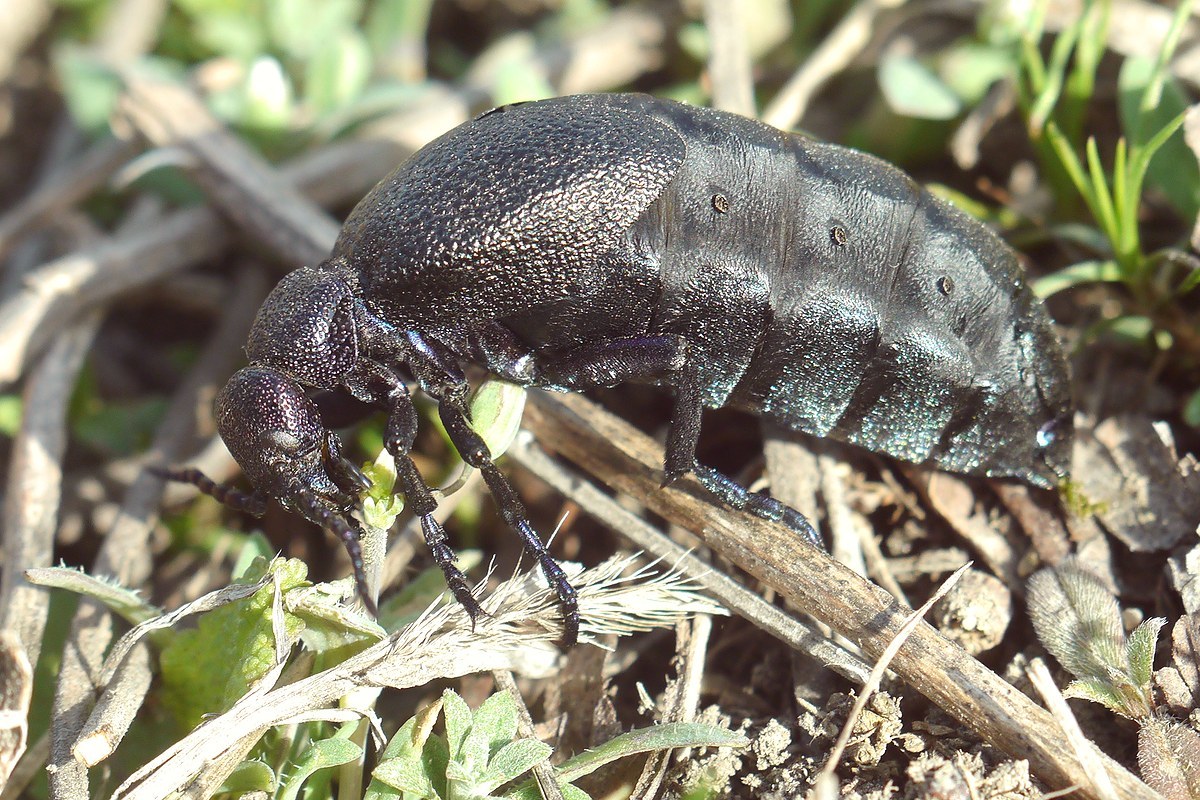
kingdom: Animalia
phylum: Arthropoda
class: Insecta
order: Coleoptera
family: Meloidae
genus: Meloe
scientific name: Meloe proscarabaeus
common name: Black oil-beetle
